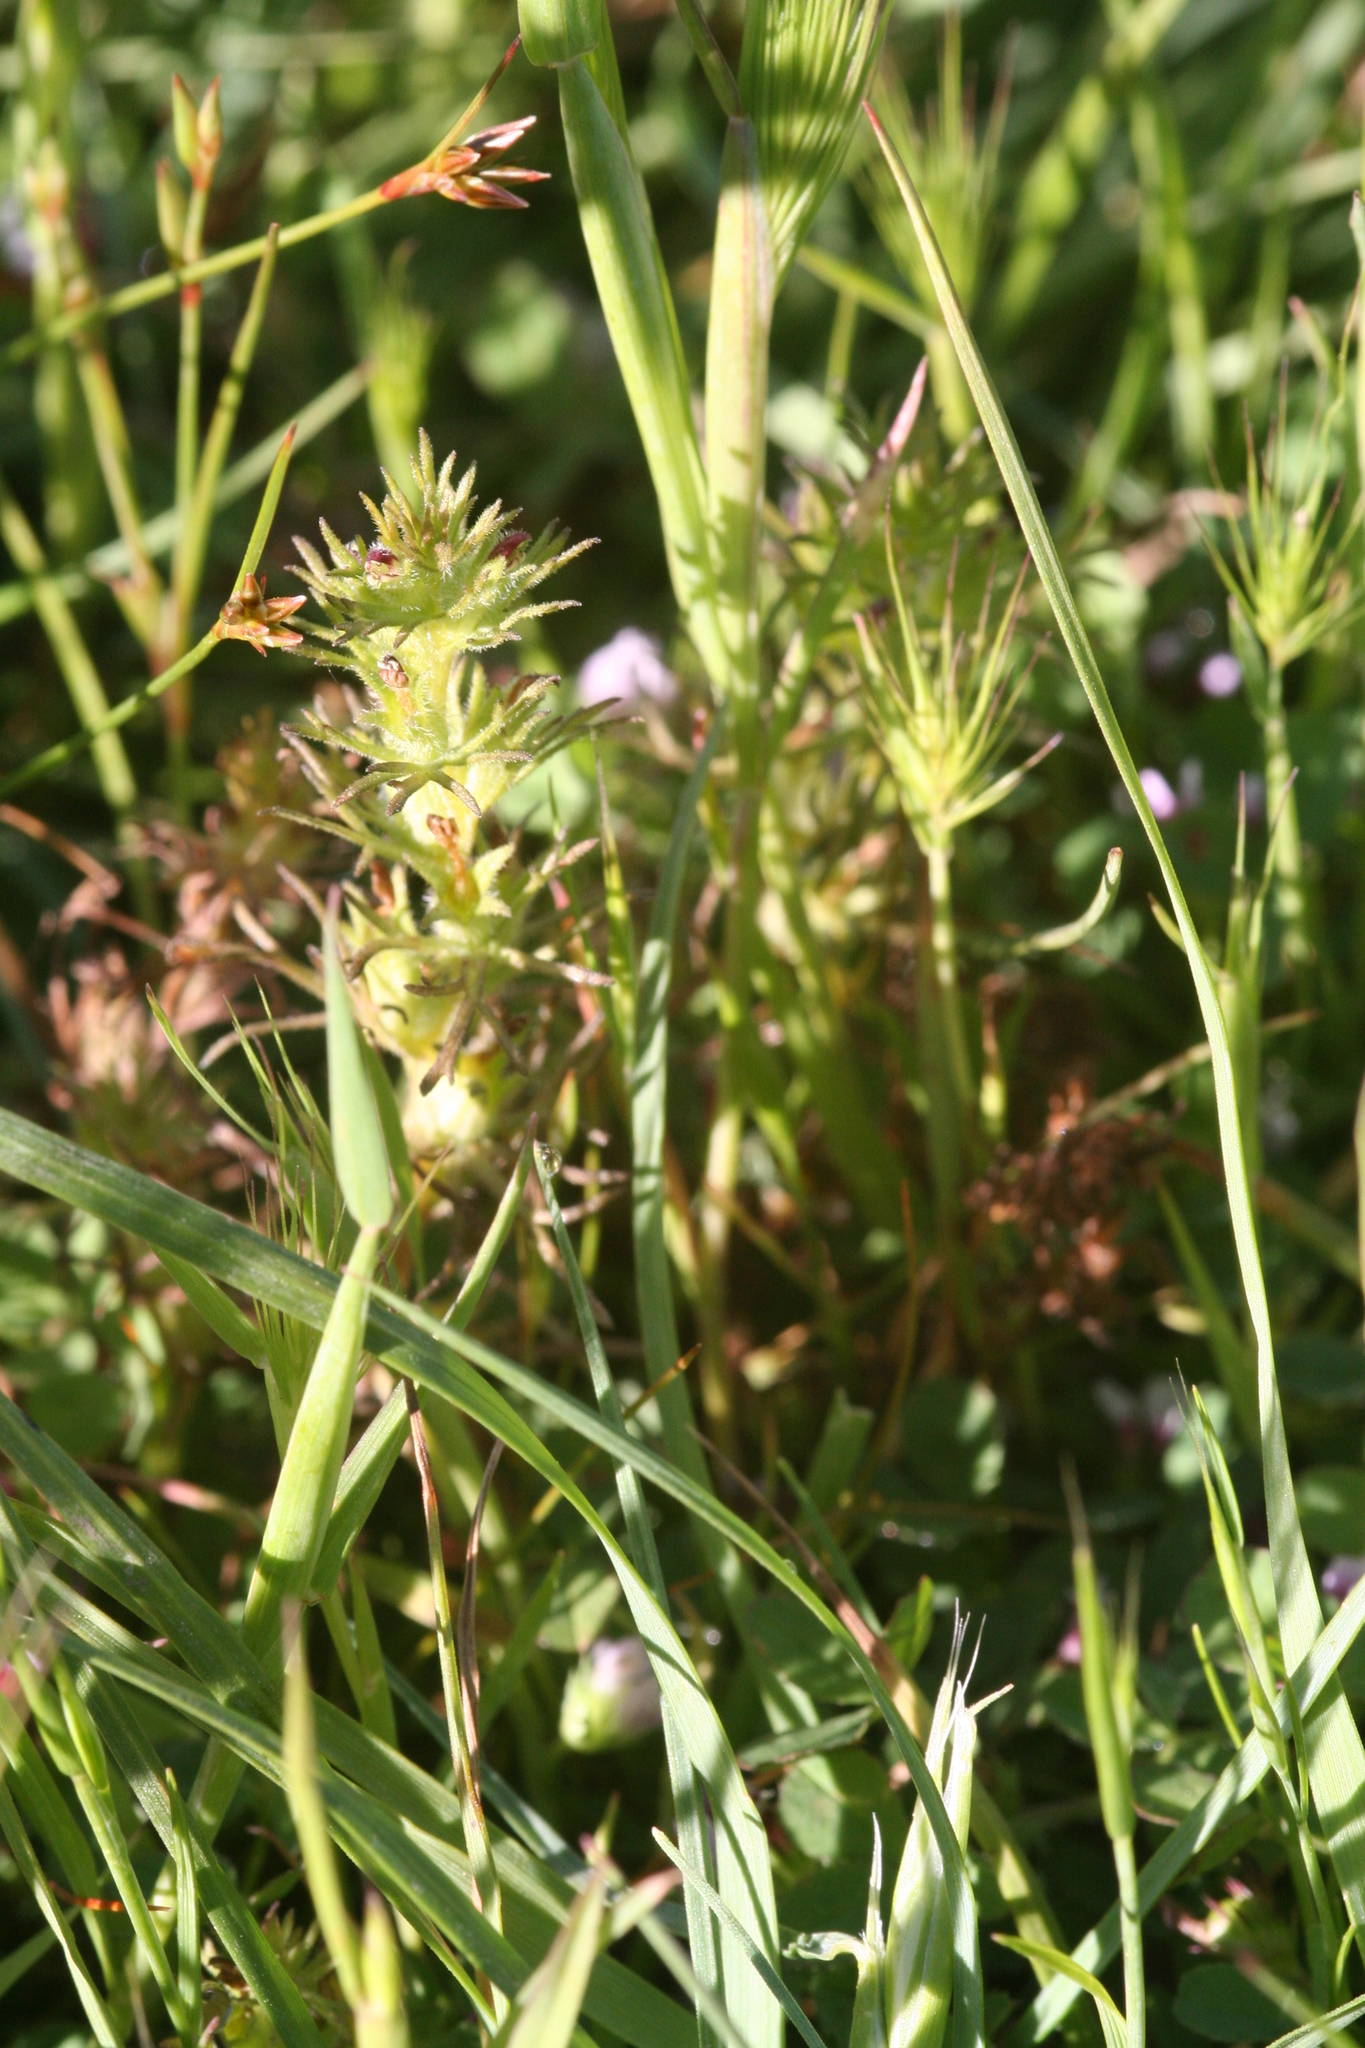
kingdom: Plantae
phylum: Tracheophyta
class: Magnoliopsida
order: Lamiales
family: Orobanchaceae
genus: Triphysaria
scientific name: Triphysaria pusilla
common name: Dwarf false owl-clover
